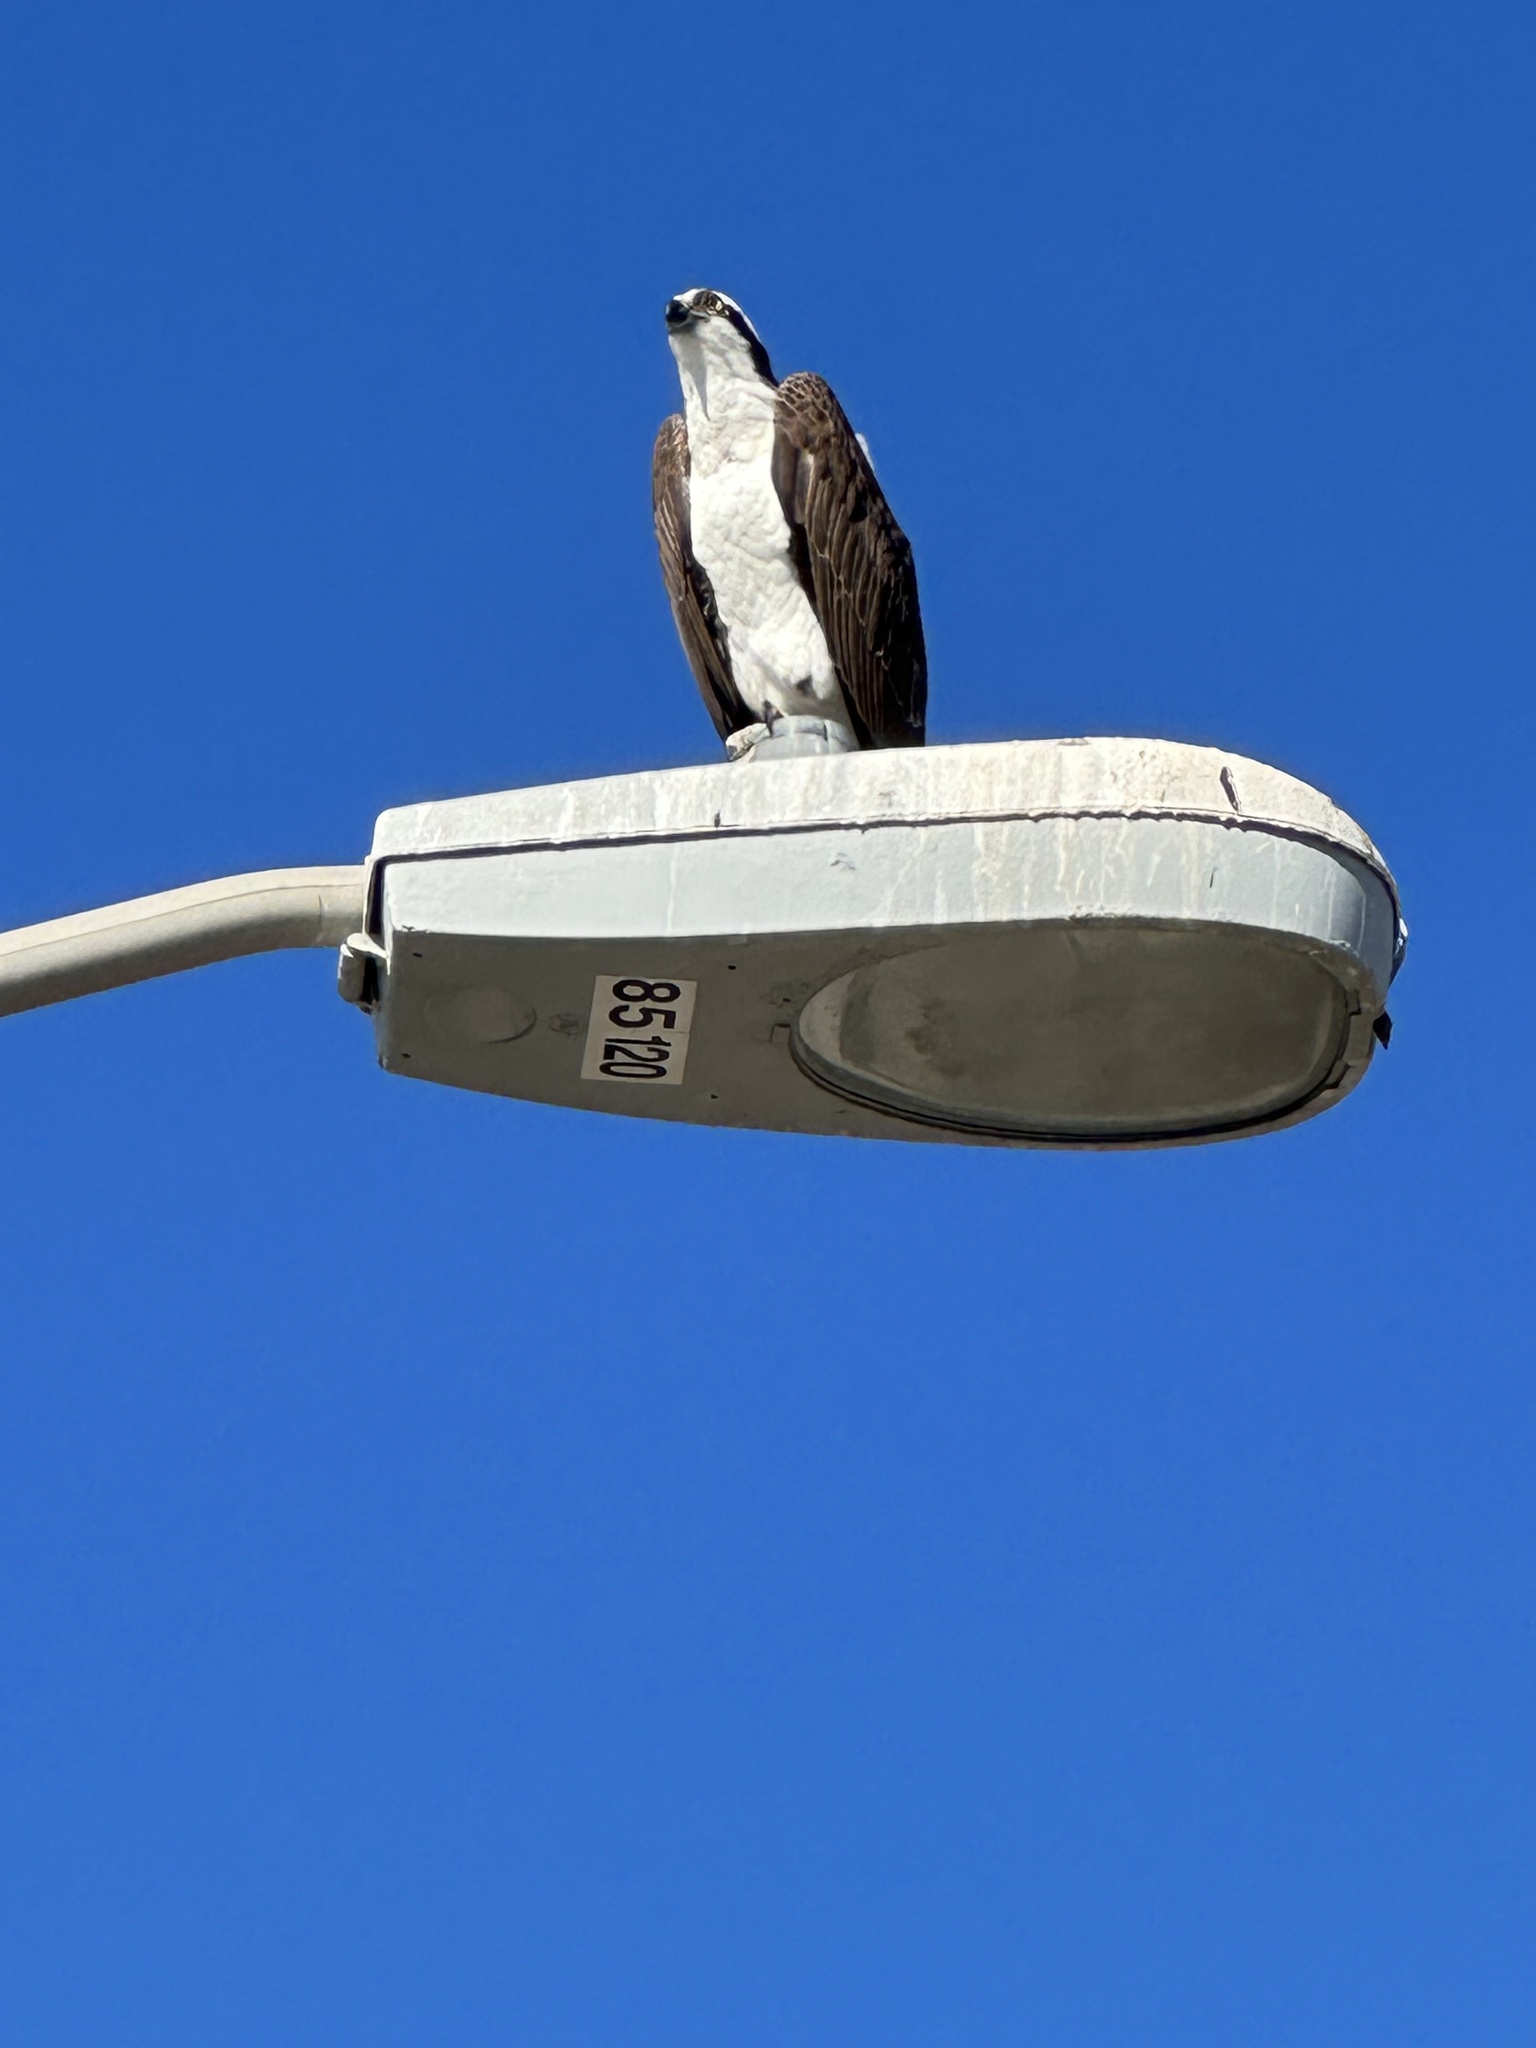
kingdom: Animalia
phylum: Chordata
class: Aves
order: Accipitriformes
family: Pandionidae
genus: Pandion
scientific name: Pandion haliaetus
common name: Osprey
